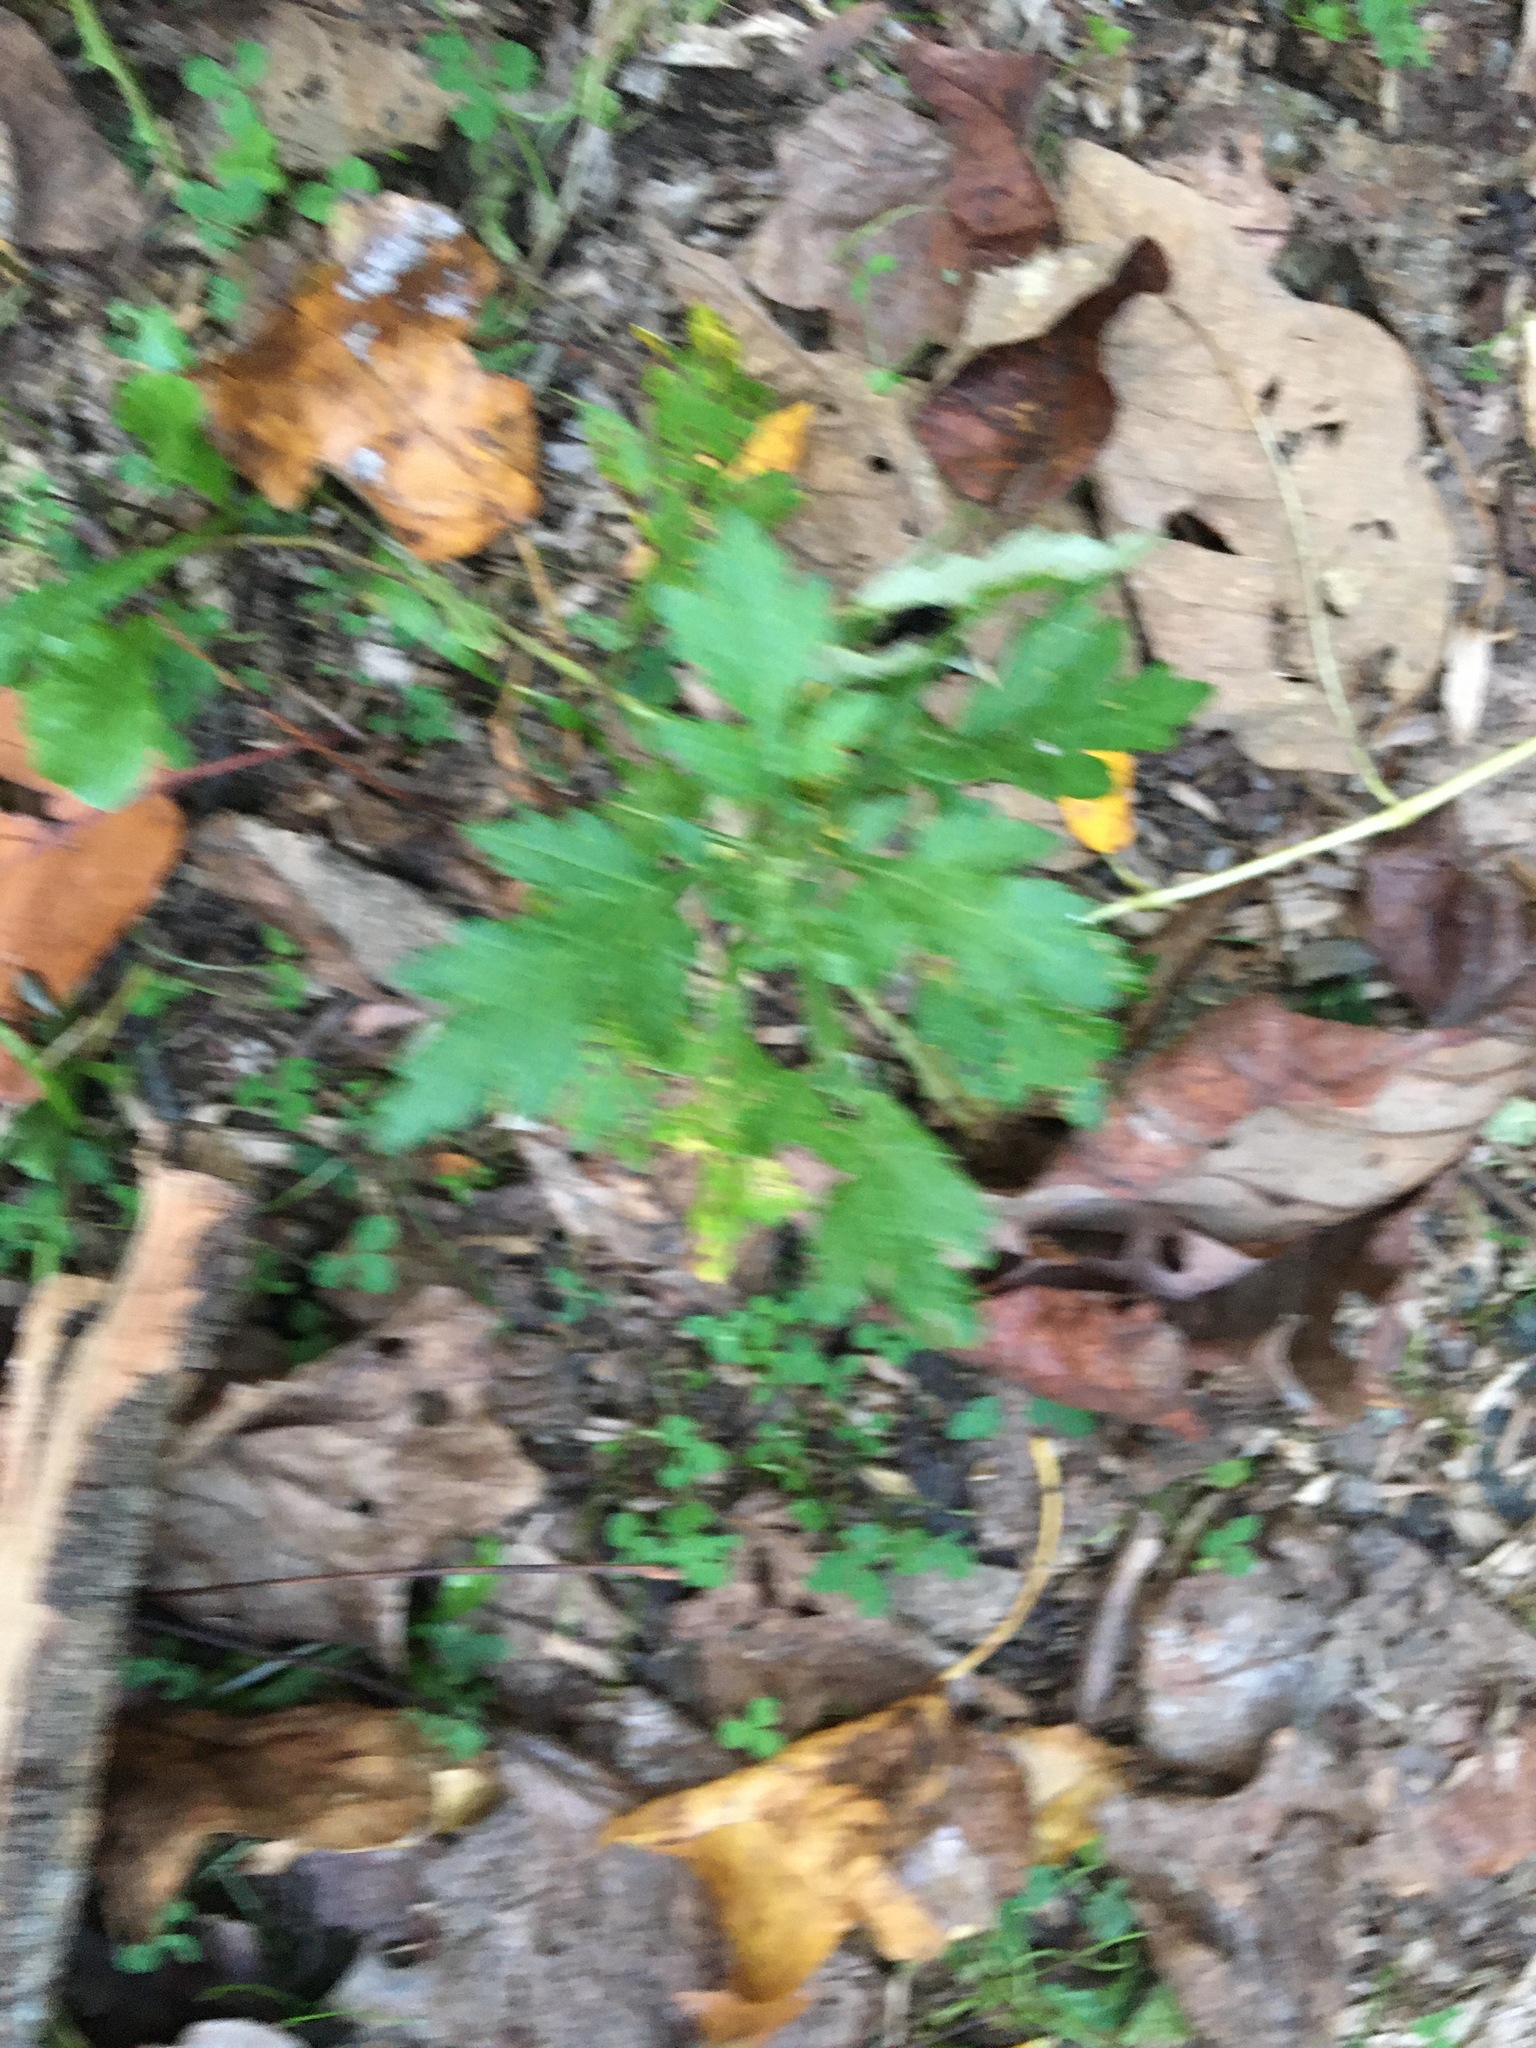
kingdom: Plantae
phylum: Tracheophyta
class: Magnoliopsida
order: Asterales
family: Asteraceae
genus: Artemisia
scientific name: Artemisia vulgaris
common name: Mugwort
